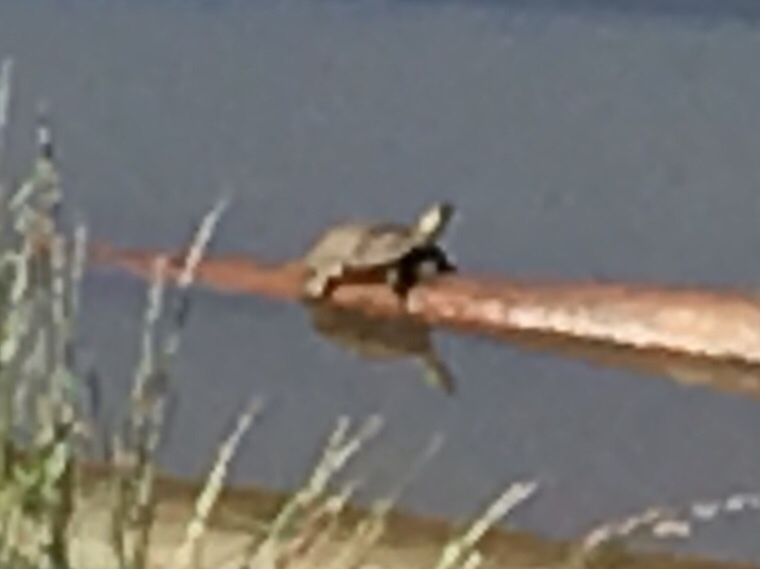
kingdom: Animalia
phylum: Chordata
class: Testudines
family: Emydidae
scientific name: Emydidae
